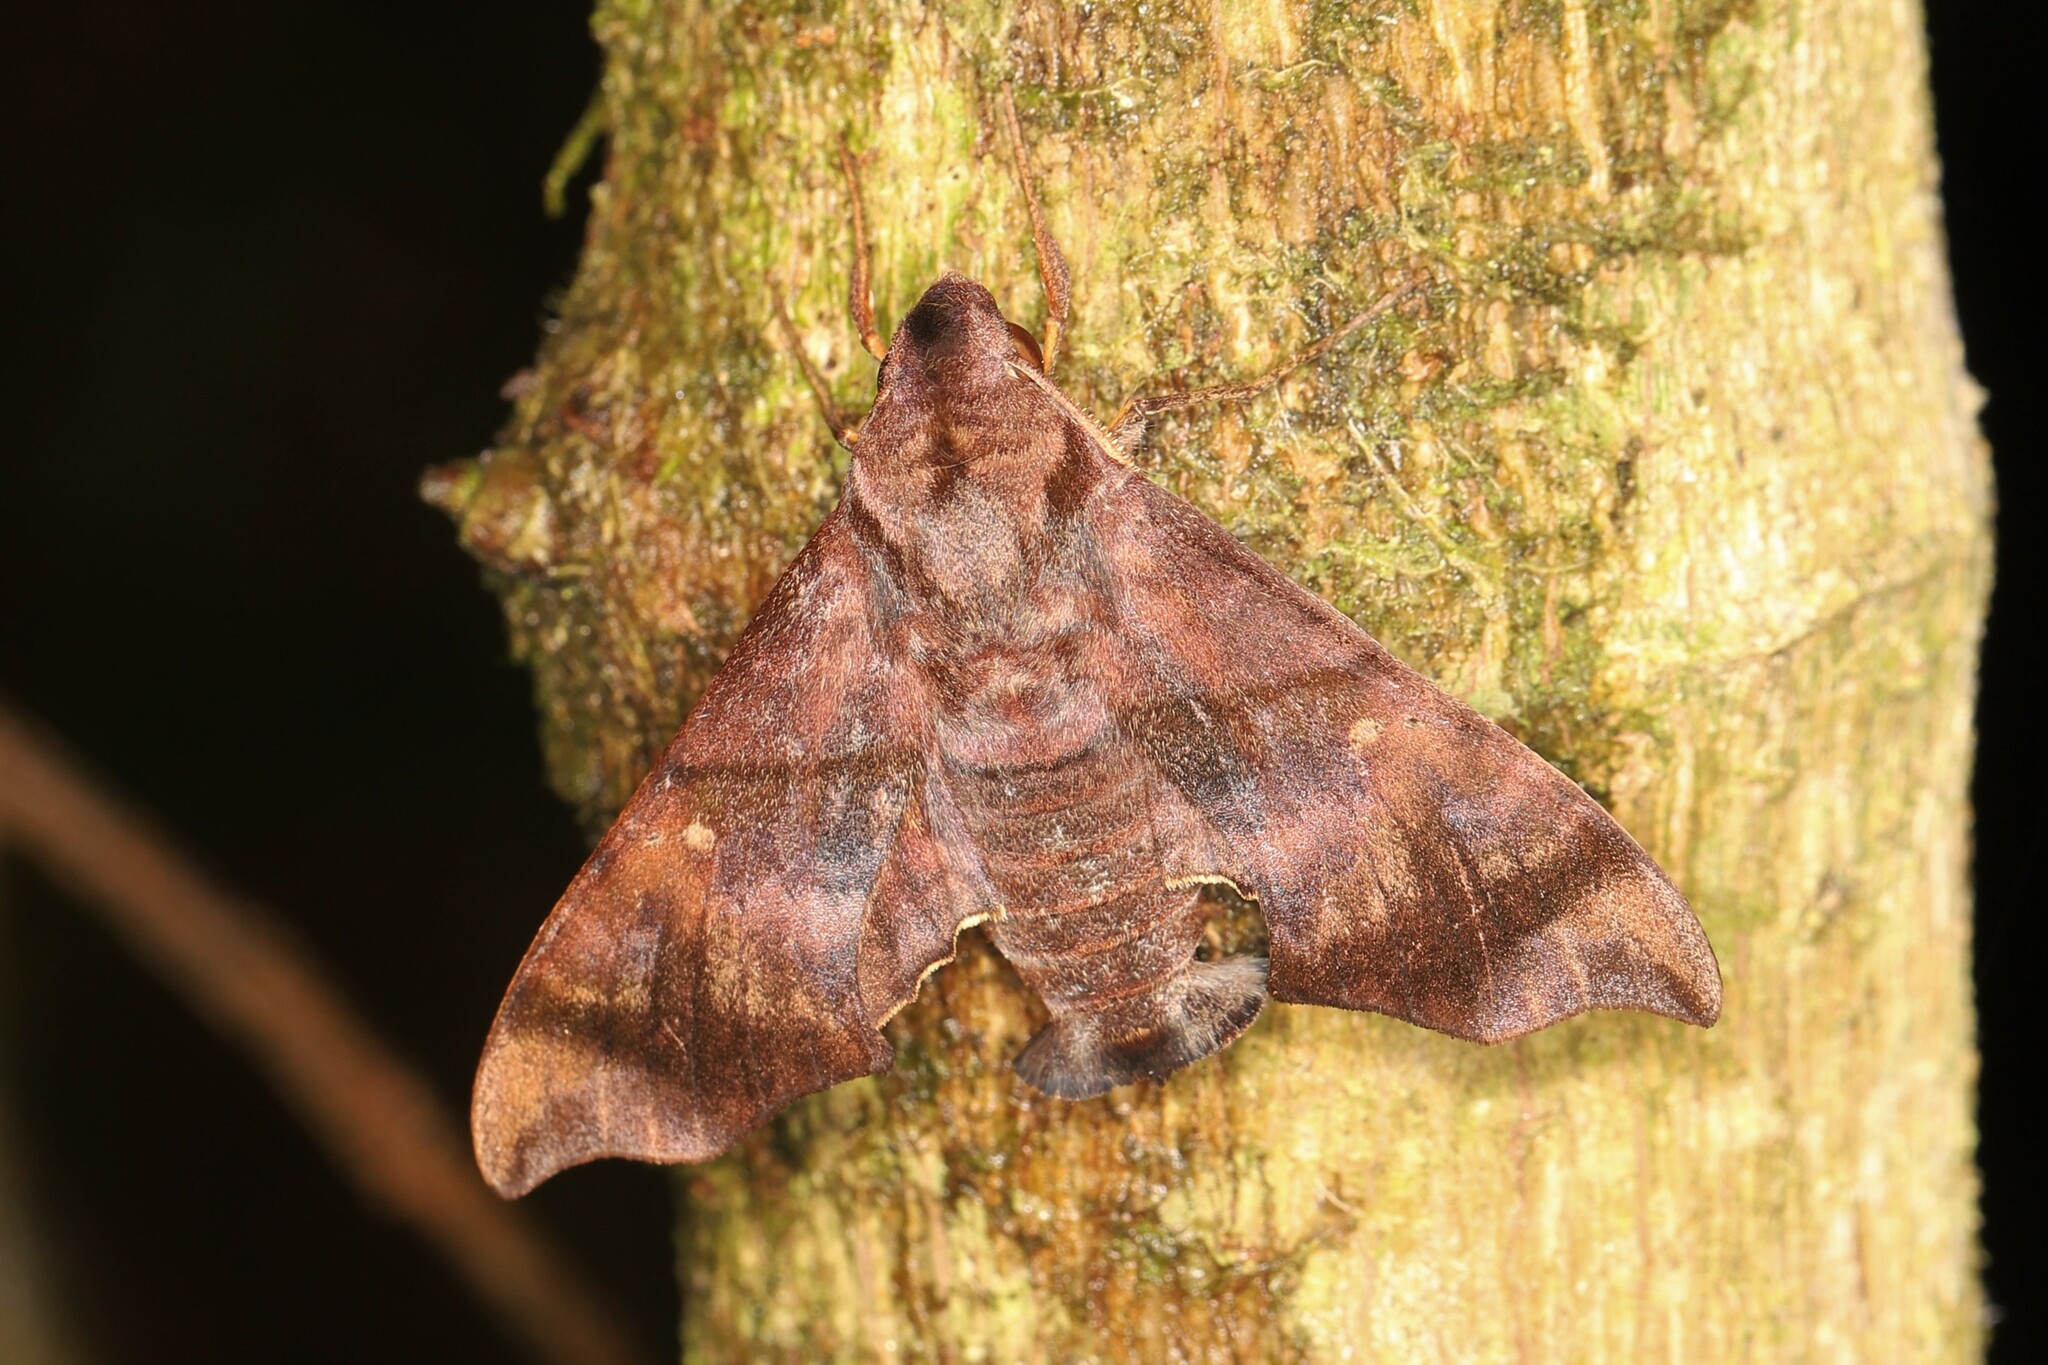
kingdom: Animalia
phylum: Arthropoda
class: Insecta
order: Lepidoptera
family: Sphingidae
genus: Perigonia
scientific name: Perigonia pallida
